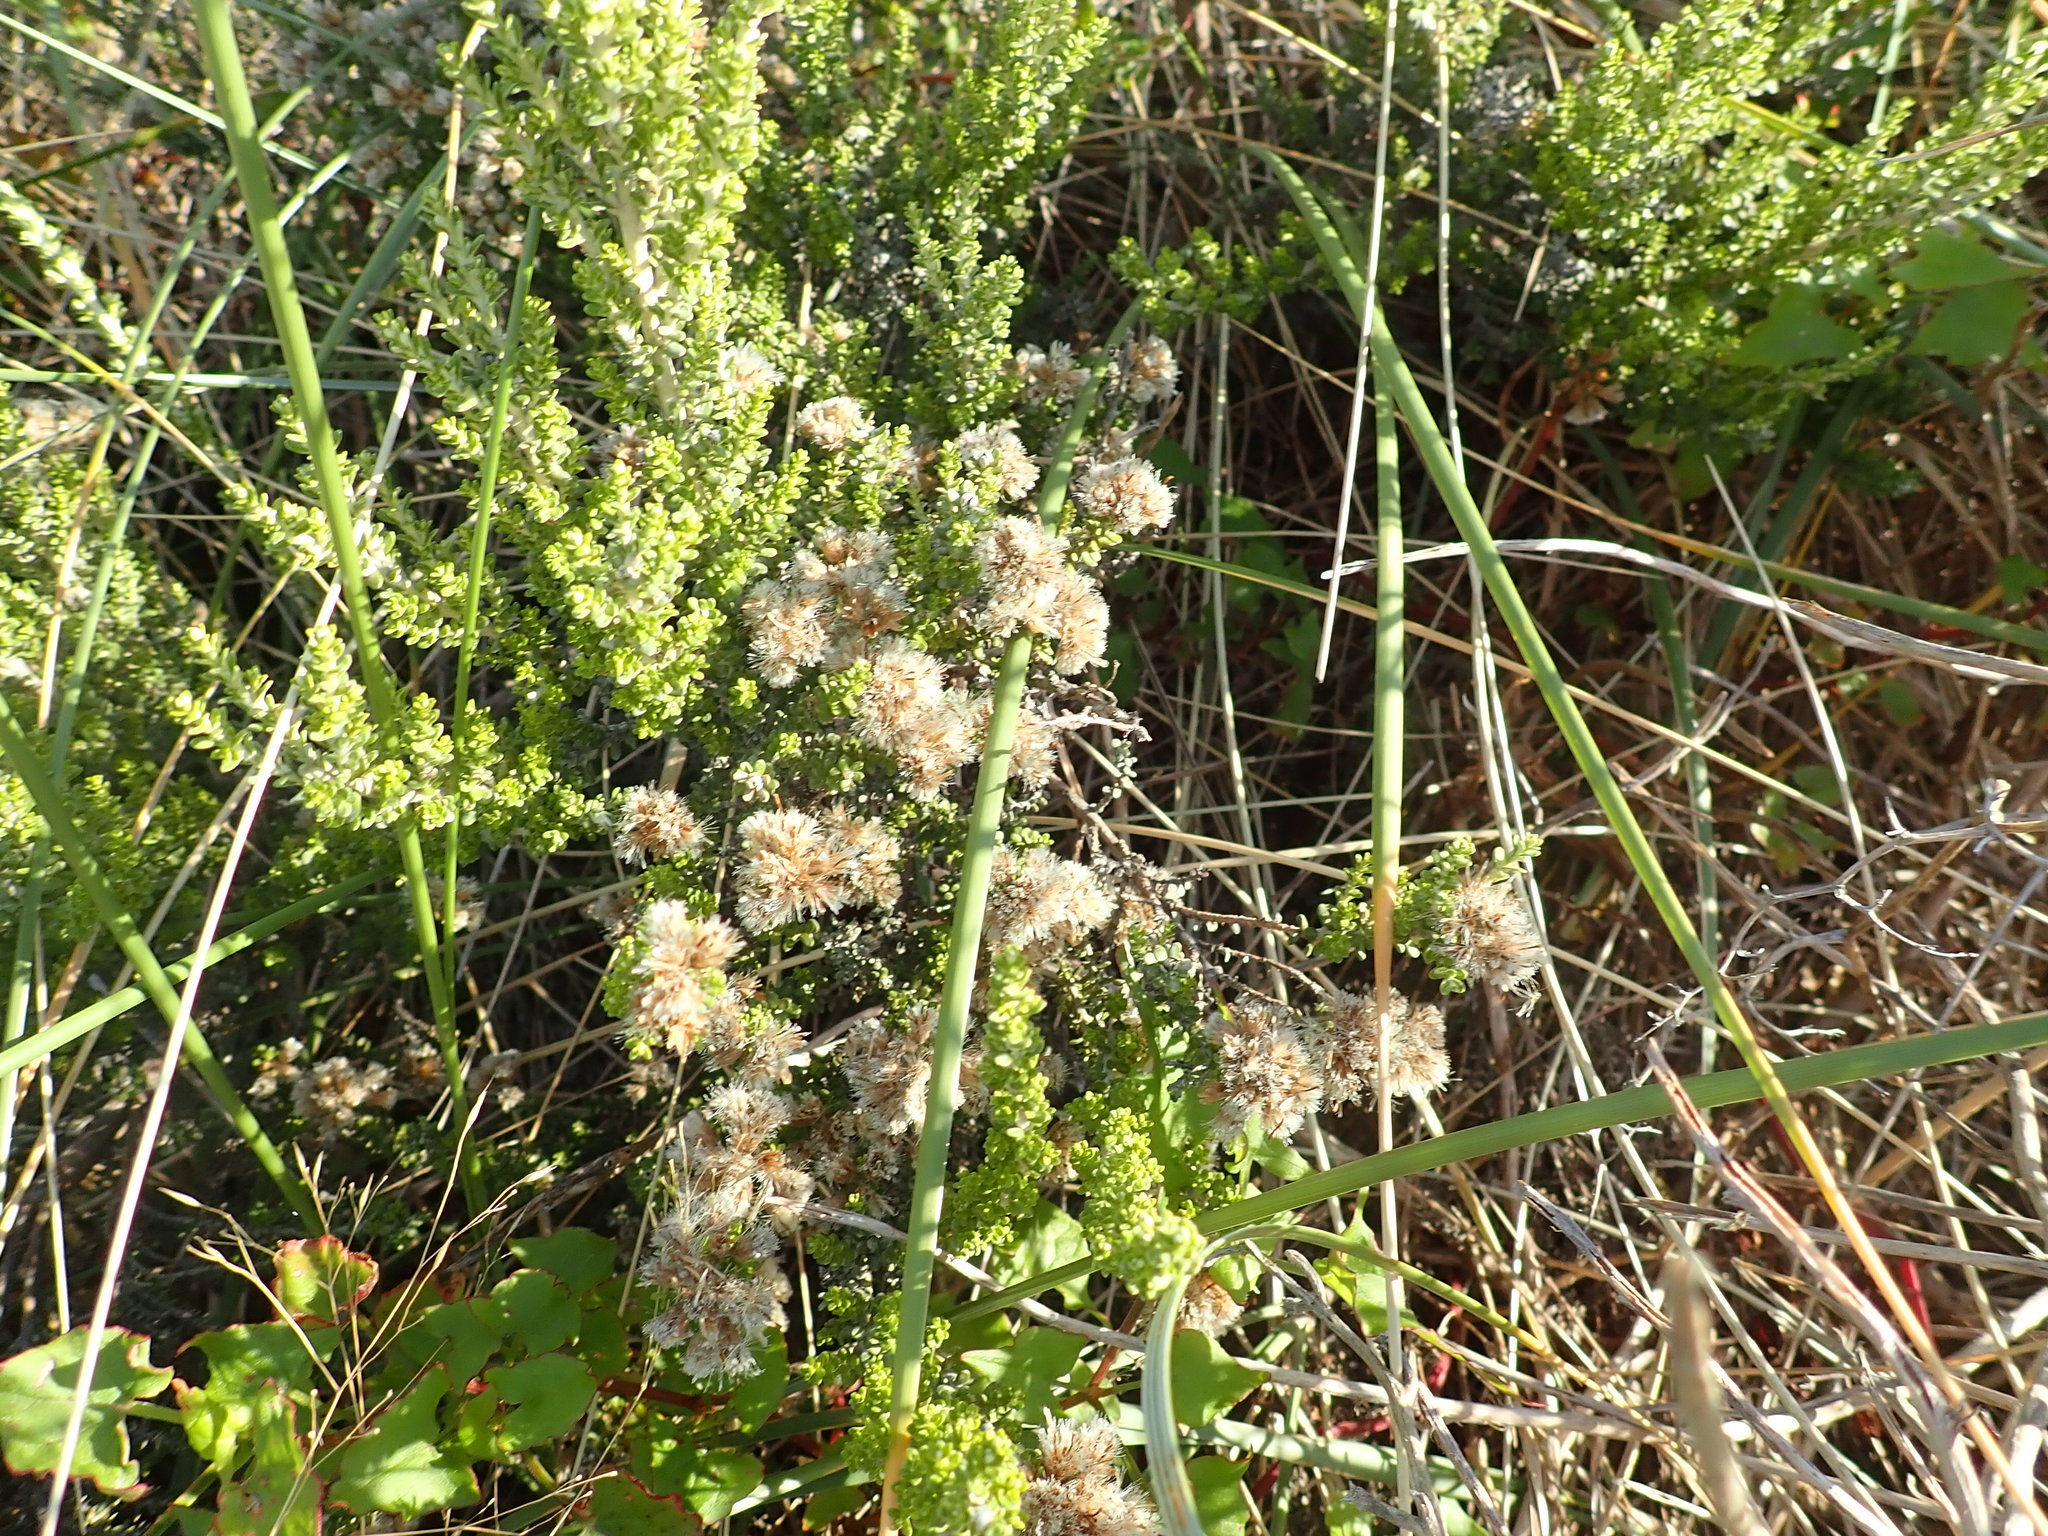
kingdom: Plantae
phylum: Tracheophyta
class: Magnoliopsida
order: Asterales
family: Asteraceae
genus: Ozothamnus
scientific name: Ozothamnus leptophyllus
